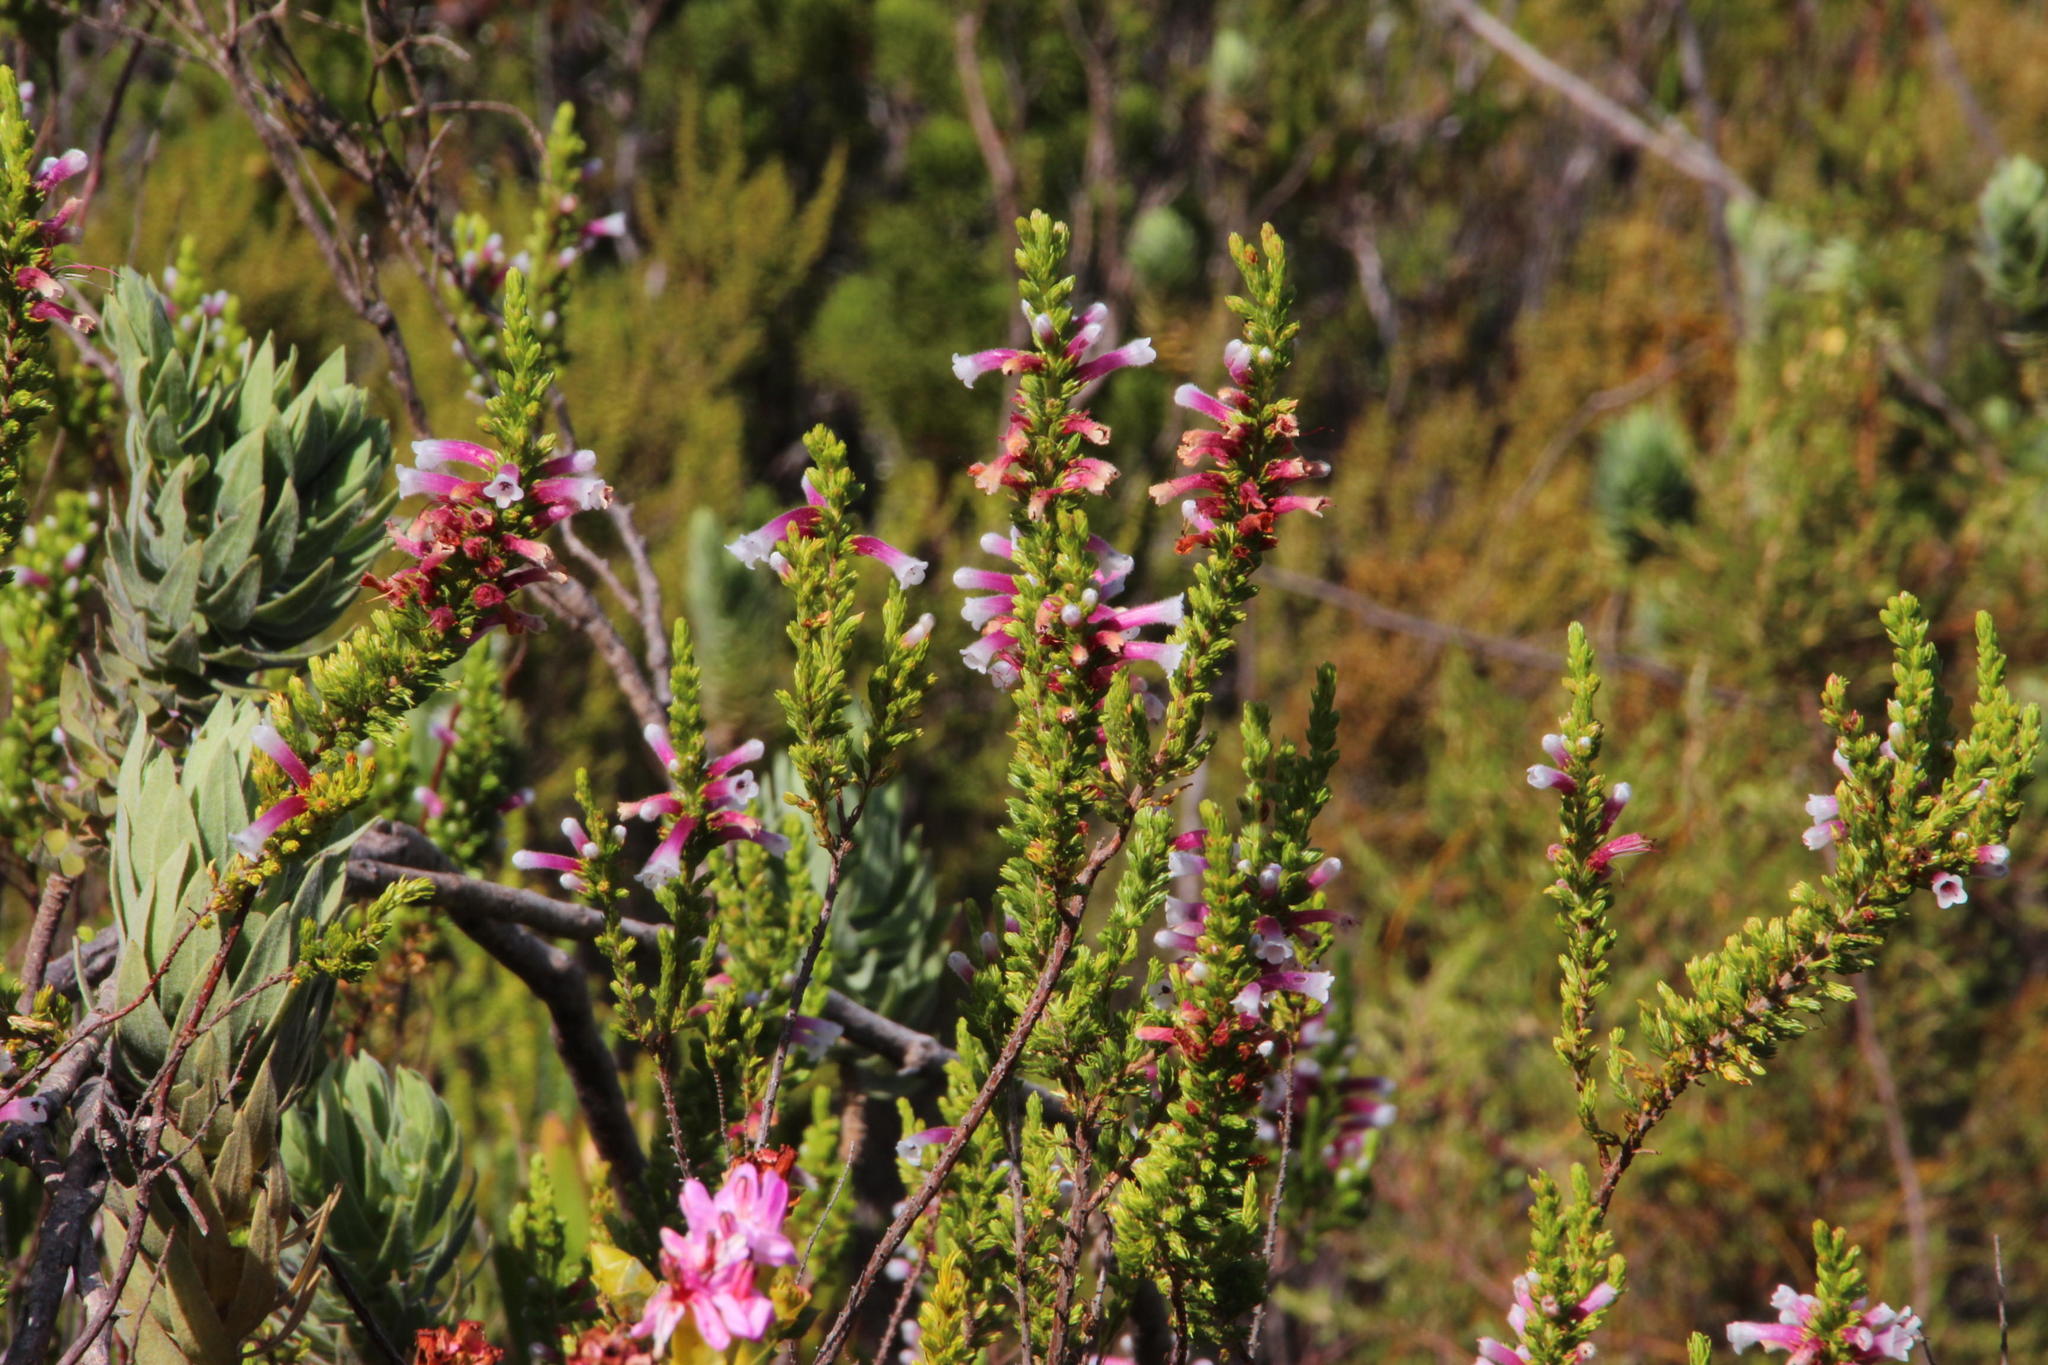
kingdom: Plantae
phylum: Tracheophyta
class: Magnoliopsida
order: Ericales
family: Ericaceae
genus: Erica
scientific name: Erica macowanii
